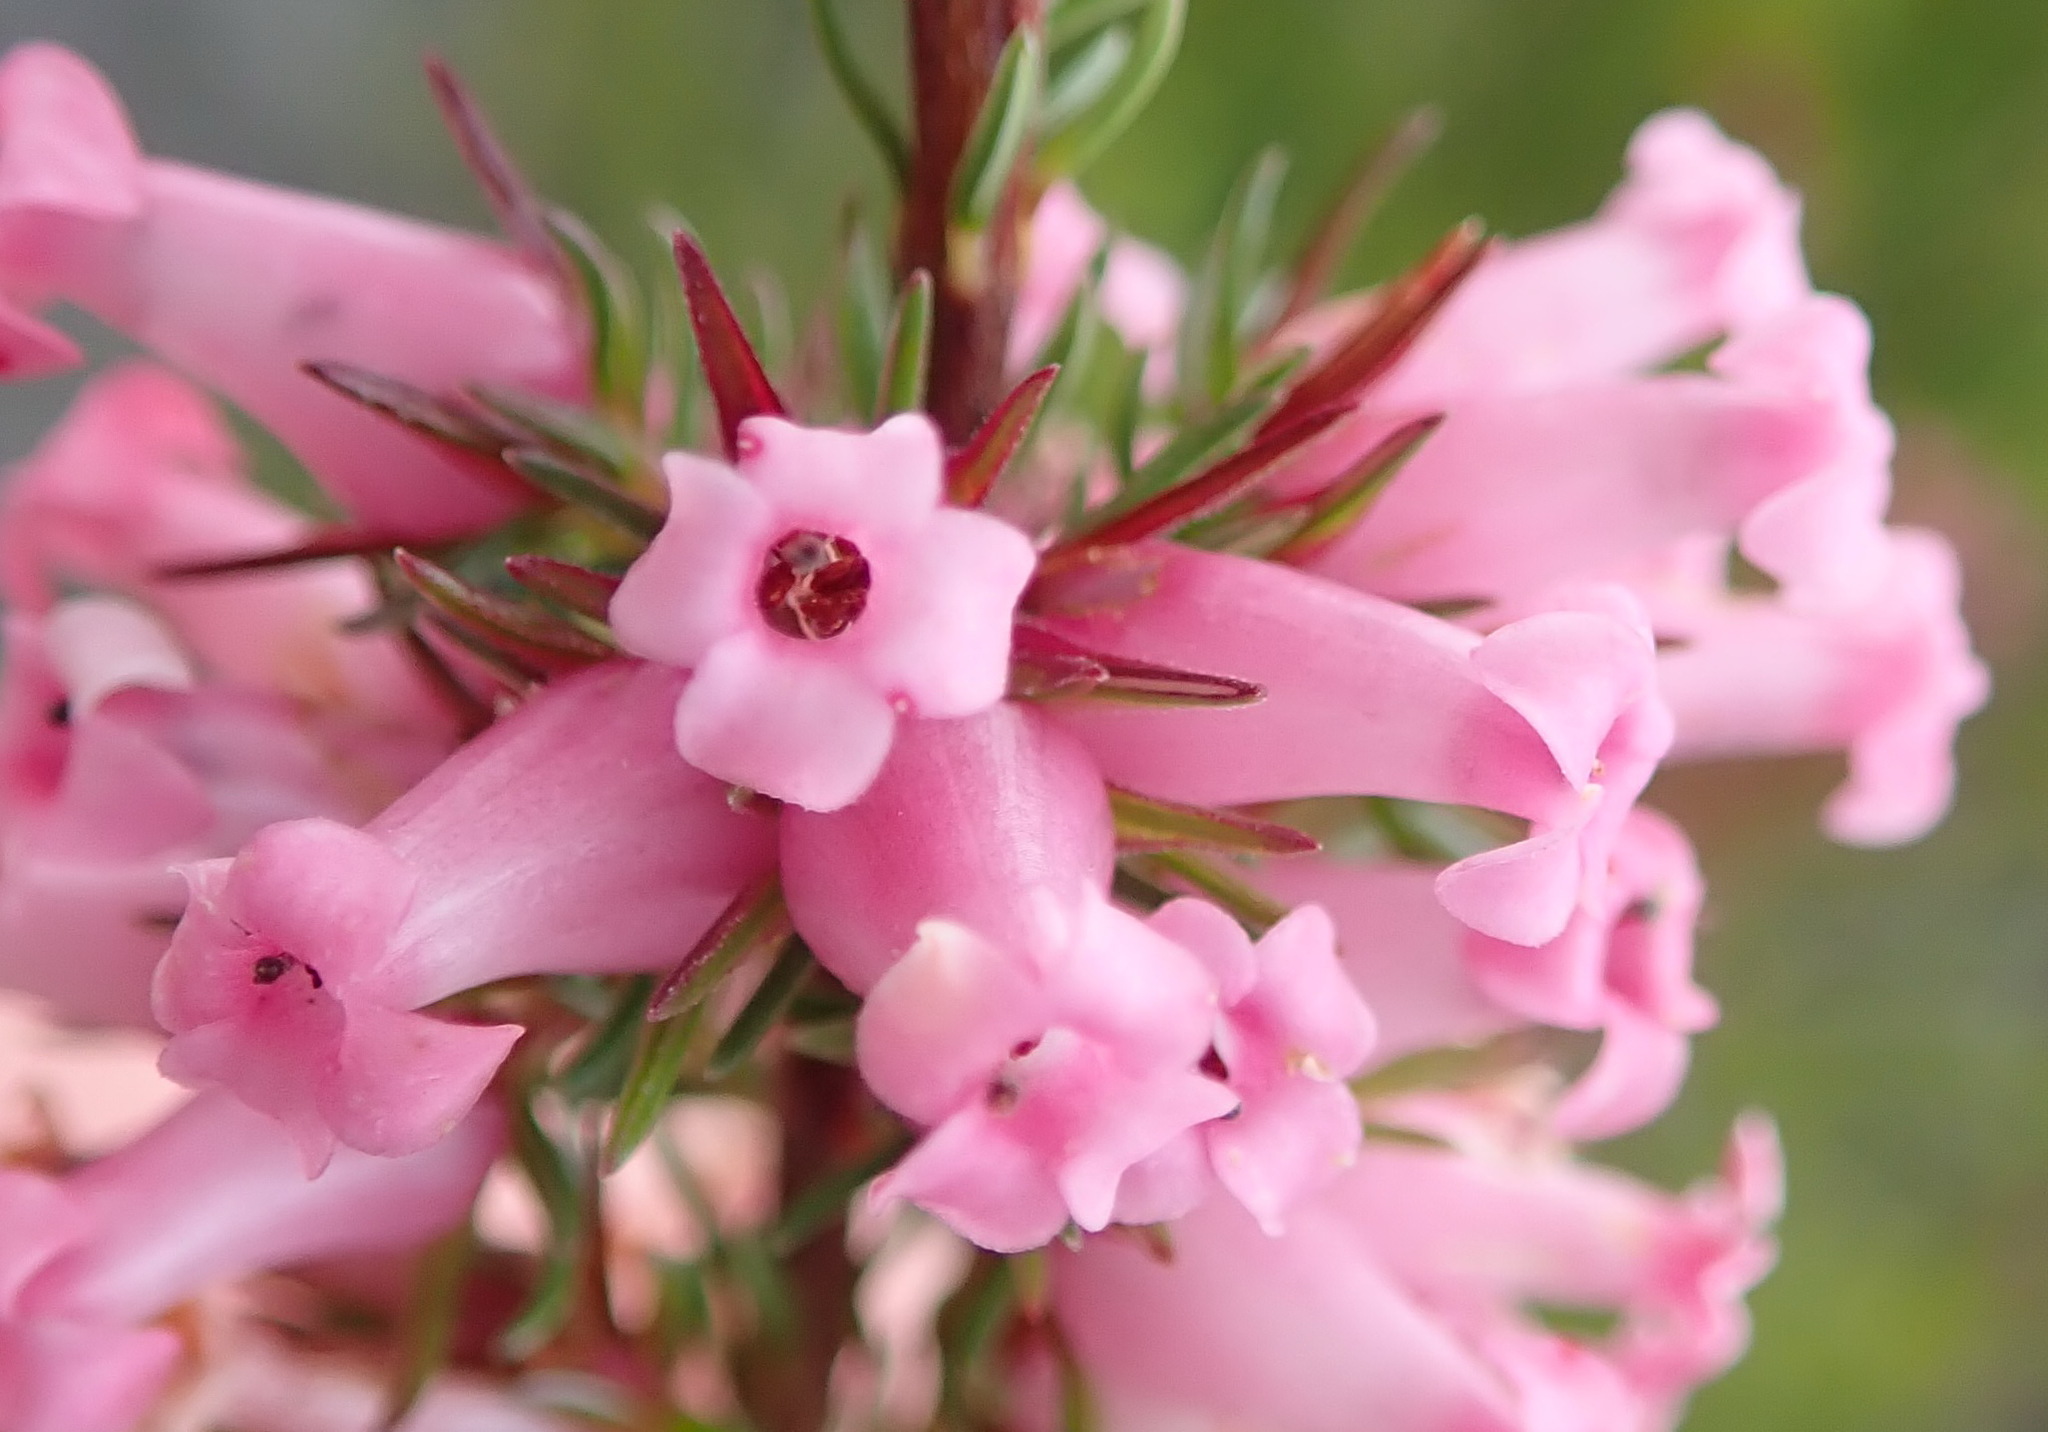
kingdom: Plantae
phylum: Tracheophyta
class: Magnoliopsida
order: Ericales
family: Ericaceae
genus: Erica
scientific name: Erica daphniflora
